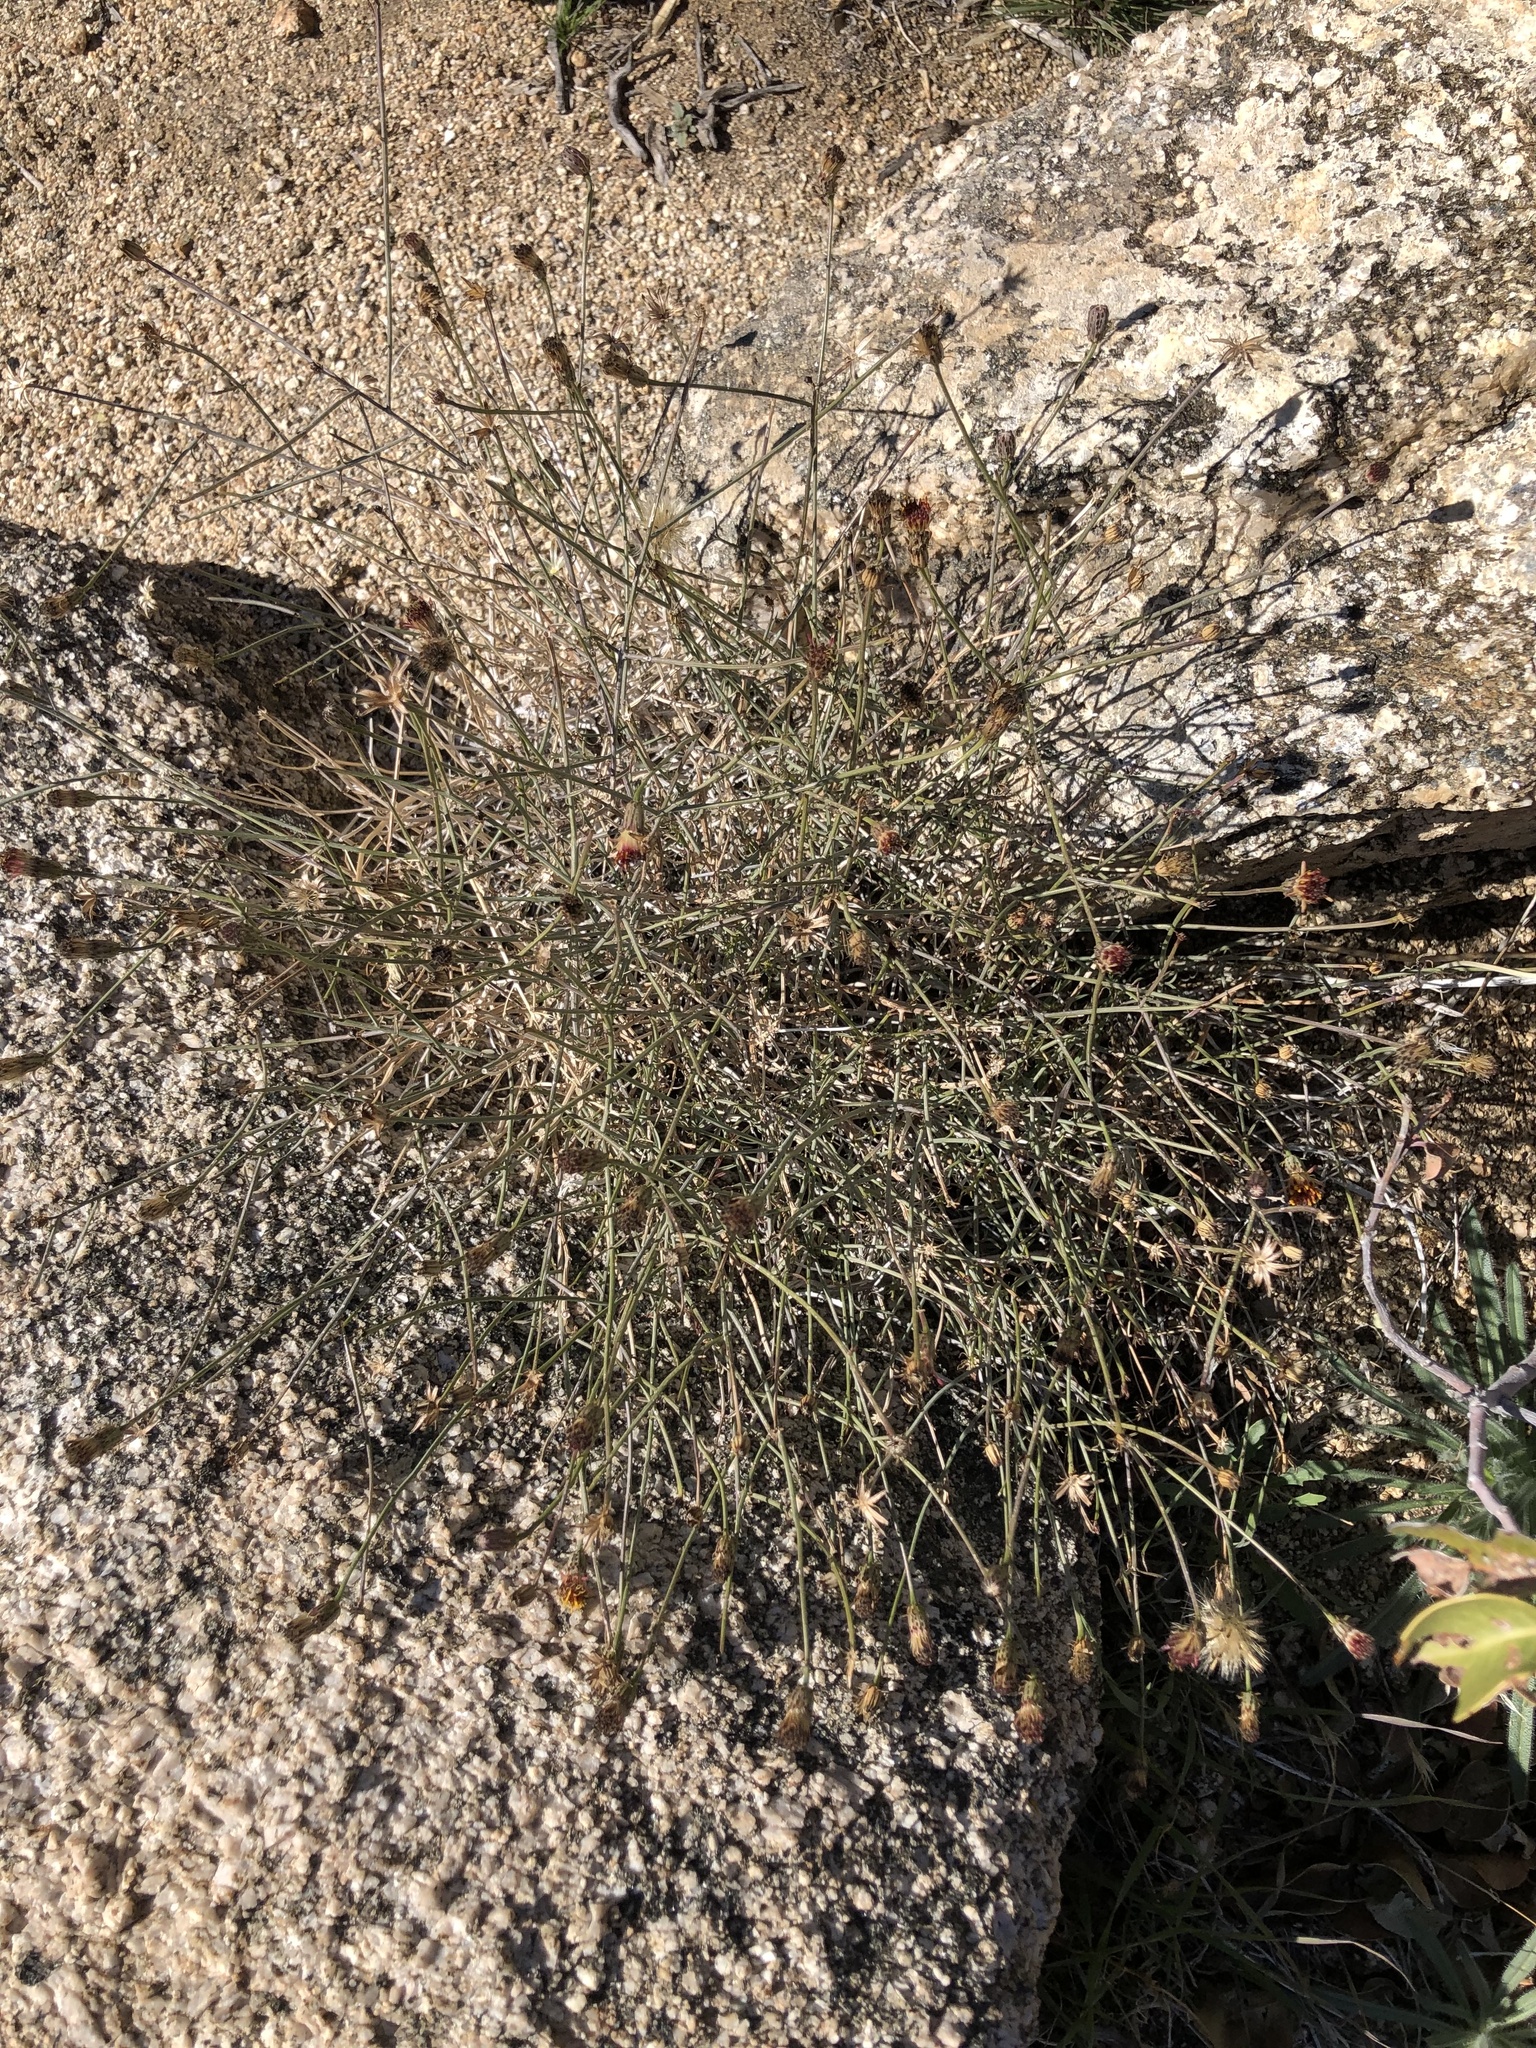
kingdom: Plantae
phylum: Tracheophyta
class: Magnoliopsida
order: Asterales
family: Asteraceae
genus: Adenophyllum
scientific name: Adenophyllum porophylloides
